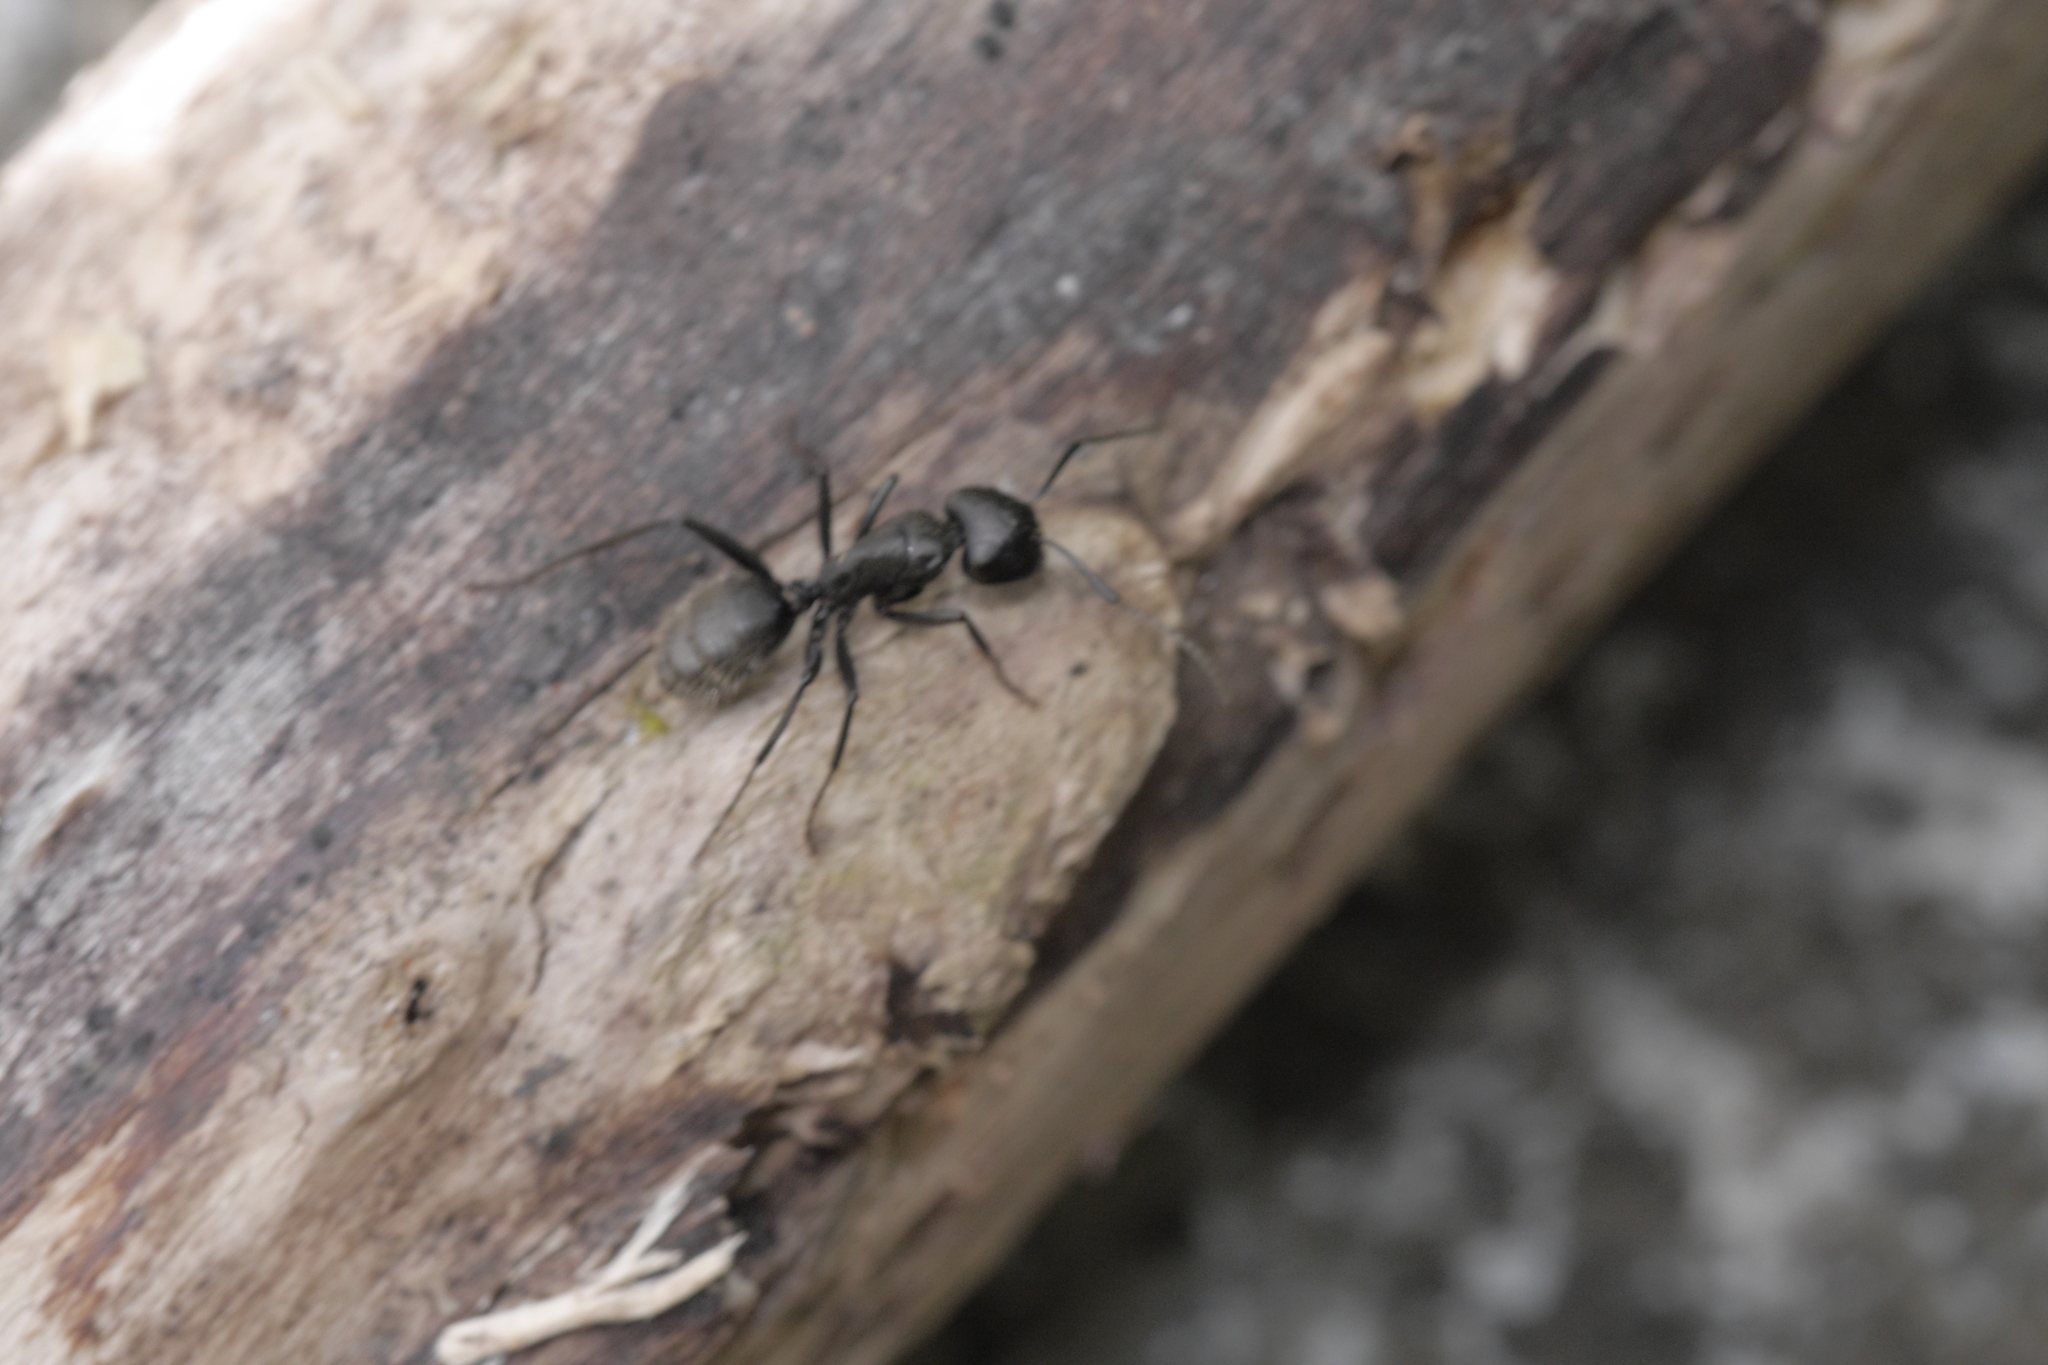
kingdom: Animalia
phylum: Arthropoda
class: Insecta
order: Hymenoptera
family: Formicidae
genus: Camponotus
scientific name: Camponotus vagus
